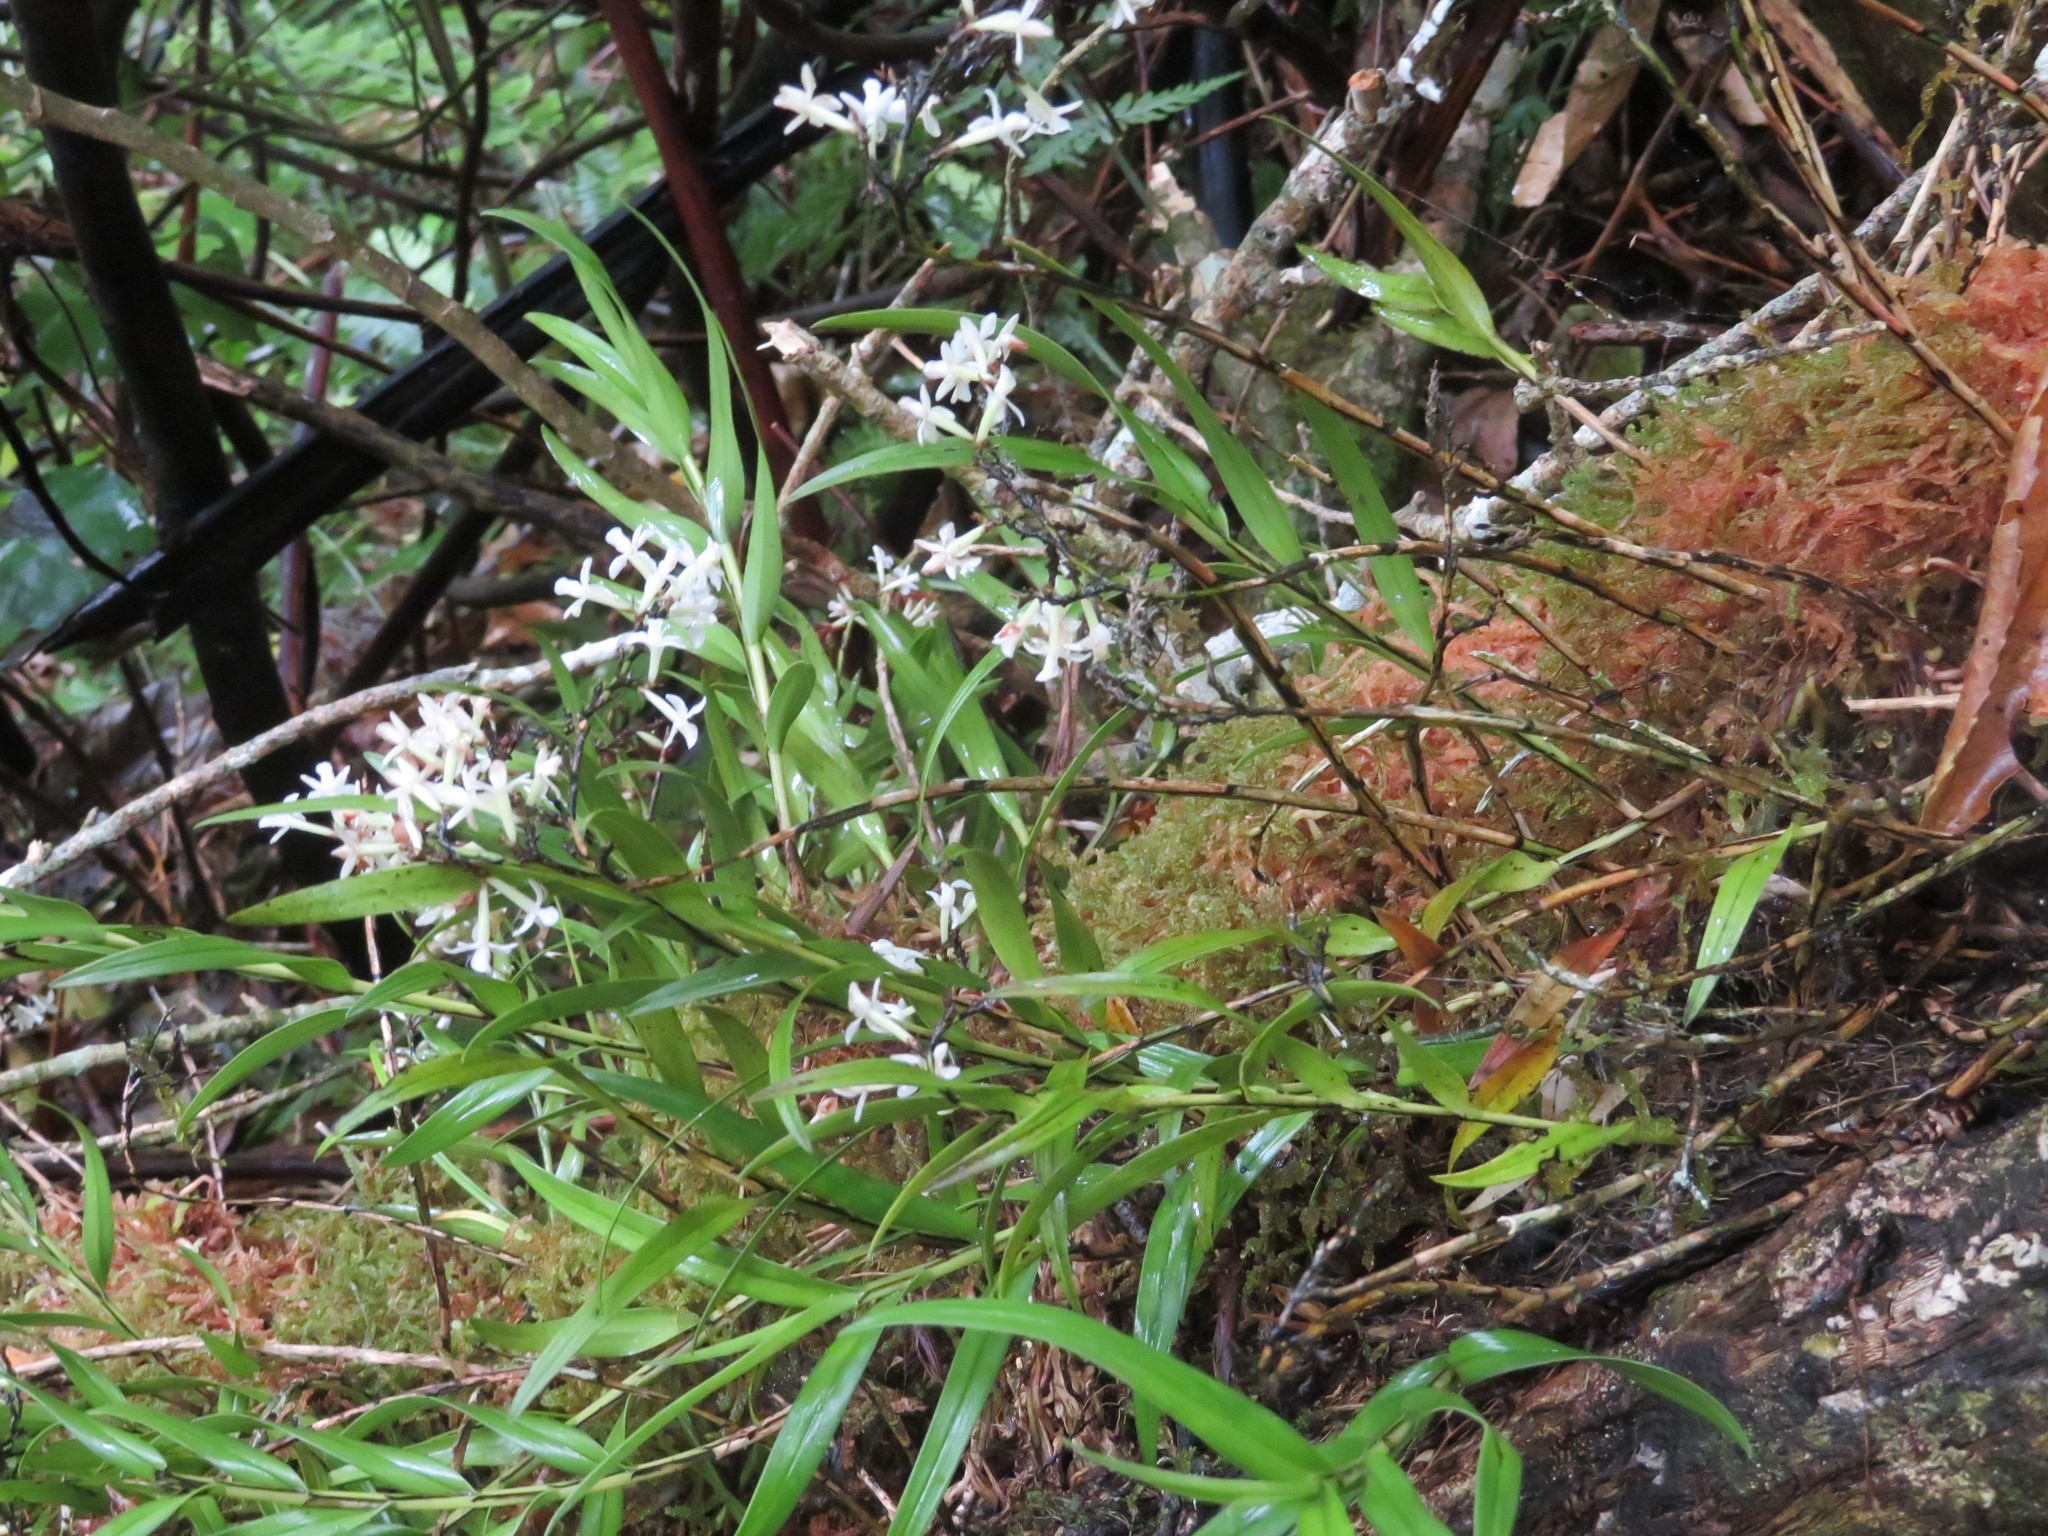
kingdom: Plantae
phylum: Tracheophyta
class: Liliopsida
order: Asparagales
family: Orchidaceae
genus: Earina
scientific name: Earina autumnalis
